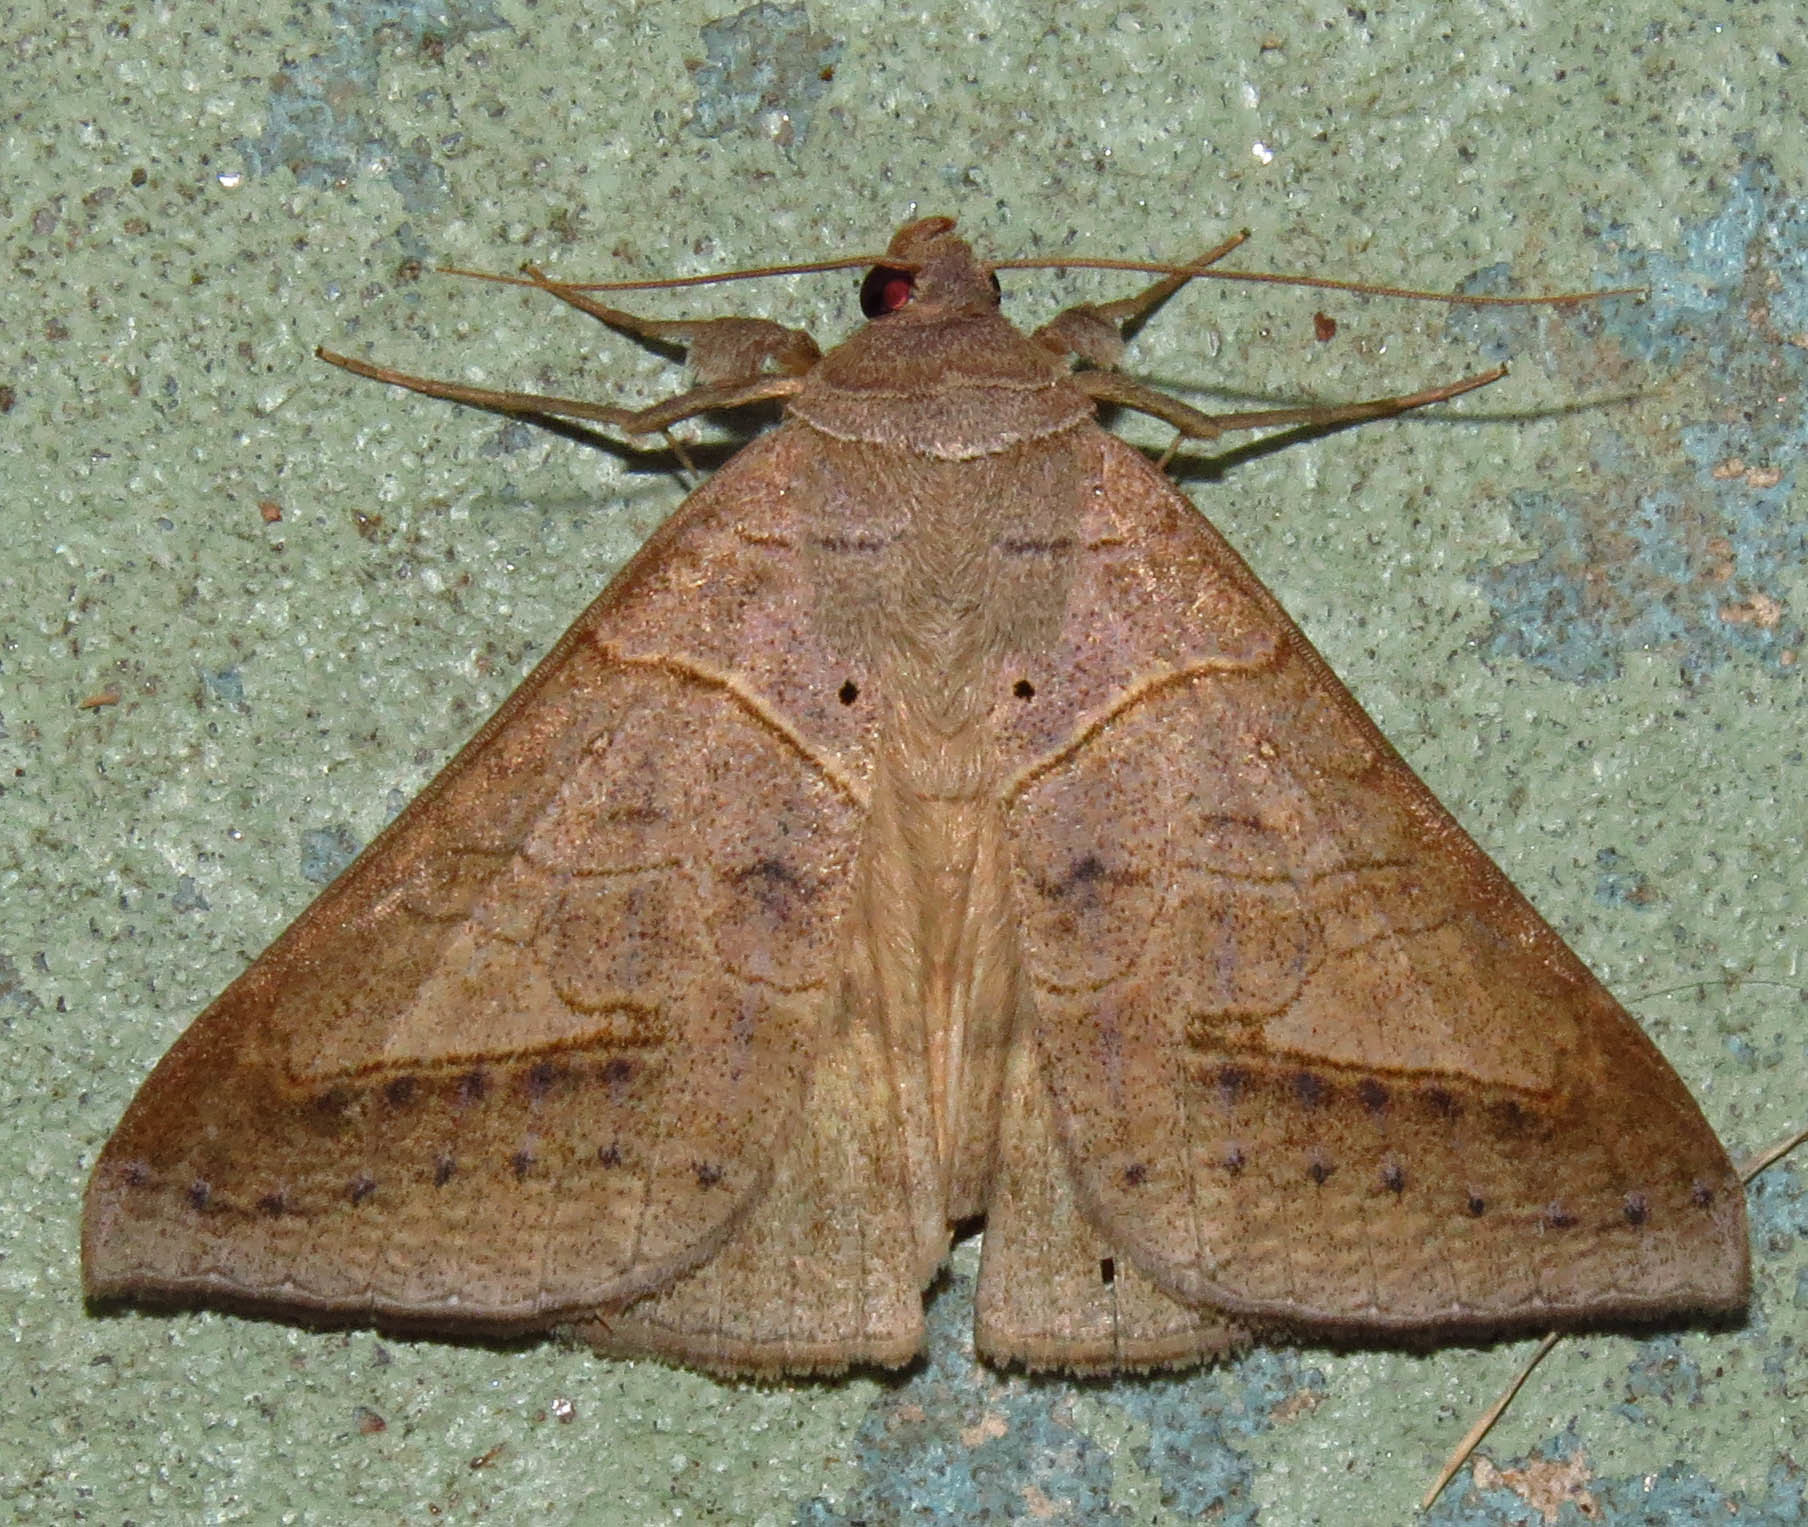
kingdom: Animalia
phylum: Arthropoda
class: Insecta
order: Lepidoptera
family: Erebidae
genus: Mocis
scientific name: Mocis marcida
